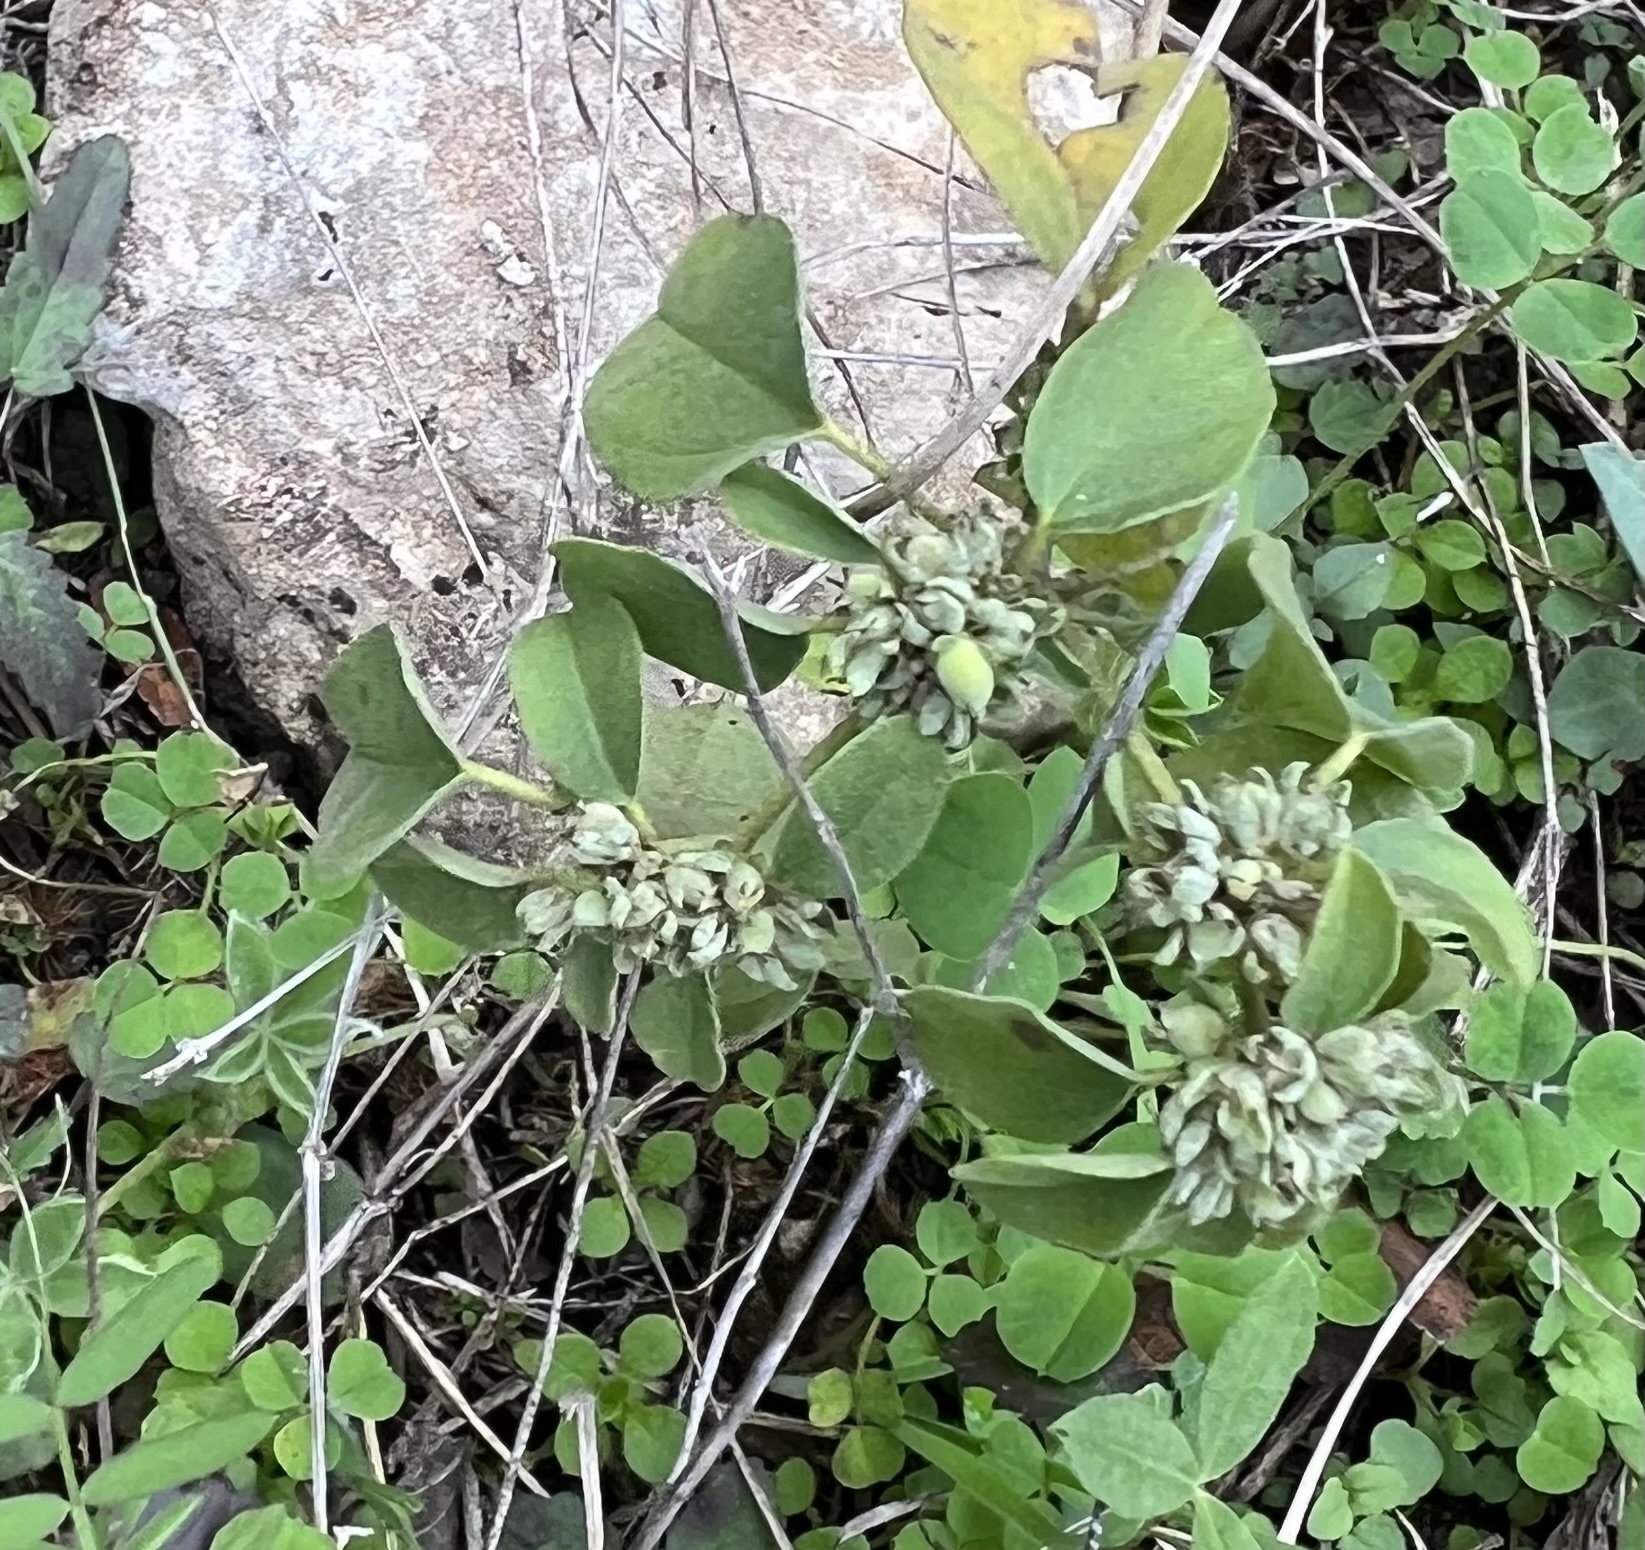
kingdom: Plantae
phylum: Tracheophyta
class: Magnoliopsida
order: Malpighiales
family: Euphorbiaceae
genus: Croton
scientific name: Croton monanthogynus
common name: One-seed croton
